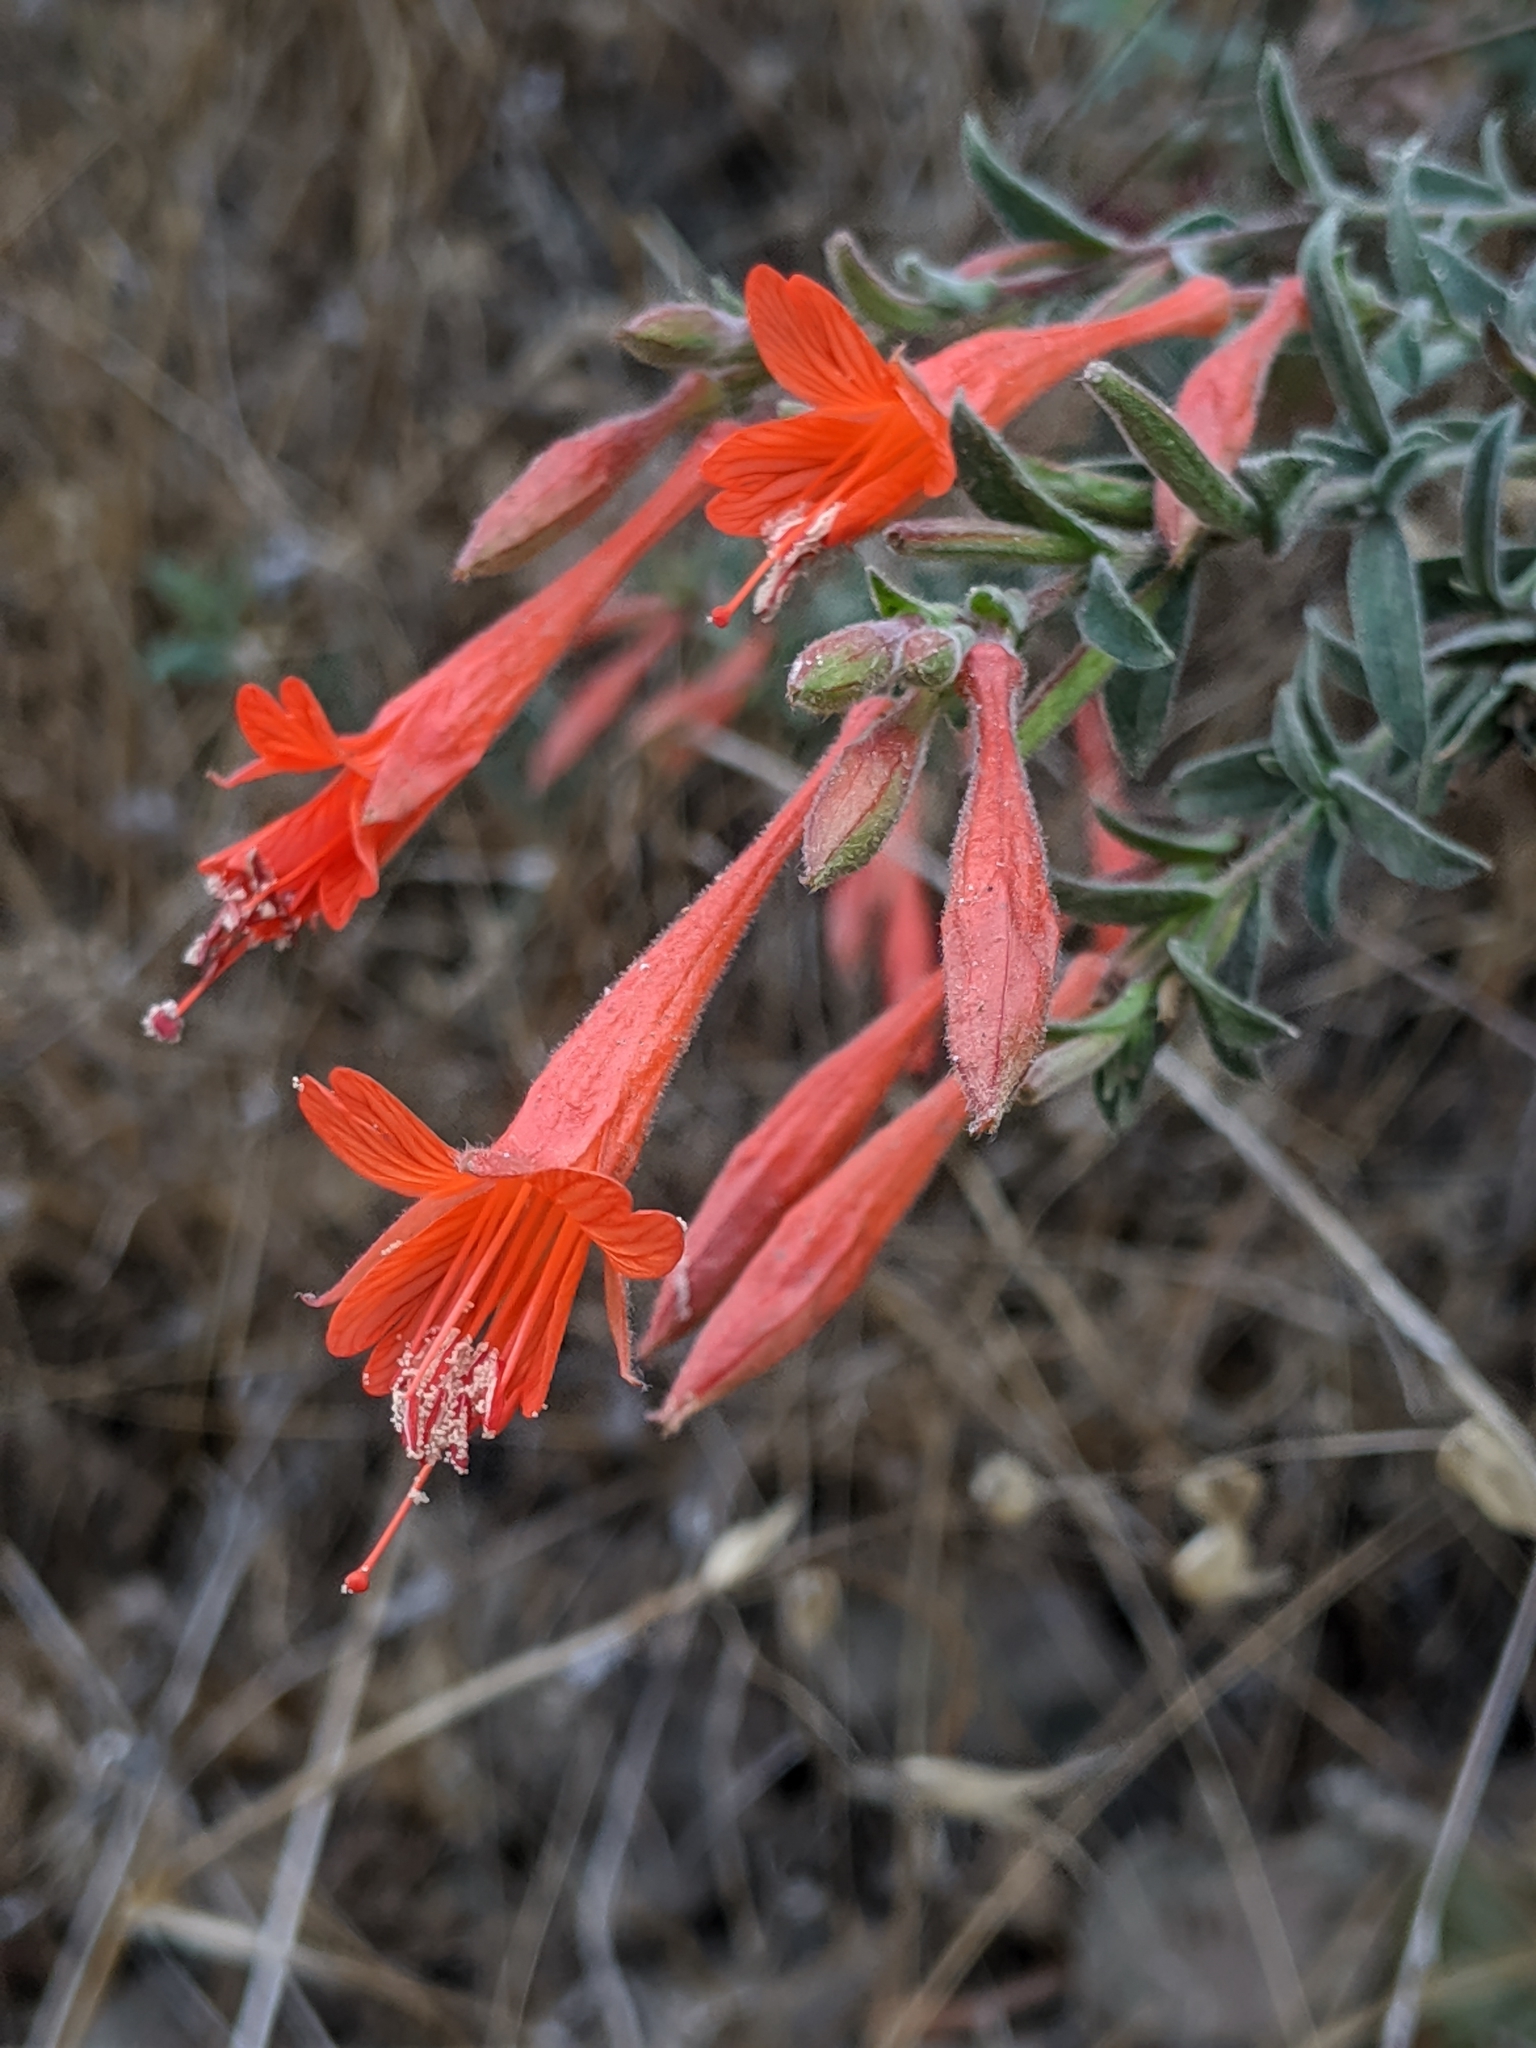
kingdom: Plantae
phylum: Tracheophyta
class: Magnoliopsida
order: Myrtales
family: Onagraceae
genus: Epilobium
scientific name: Epilobium canum
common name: California-fuchsia
